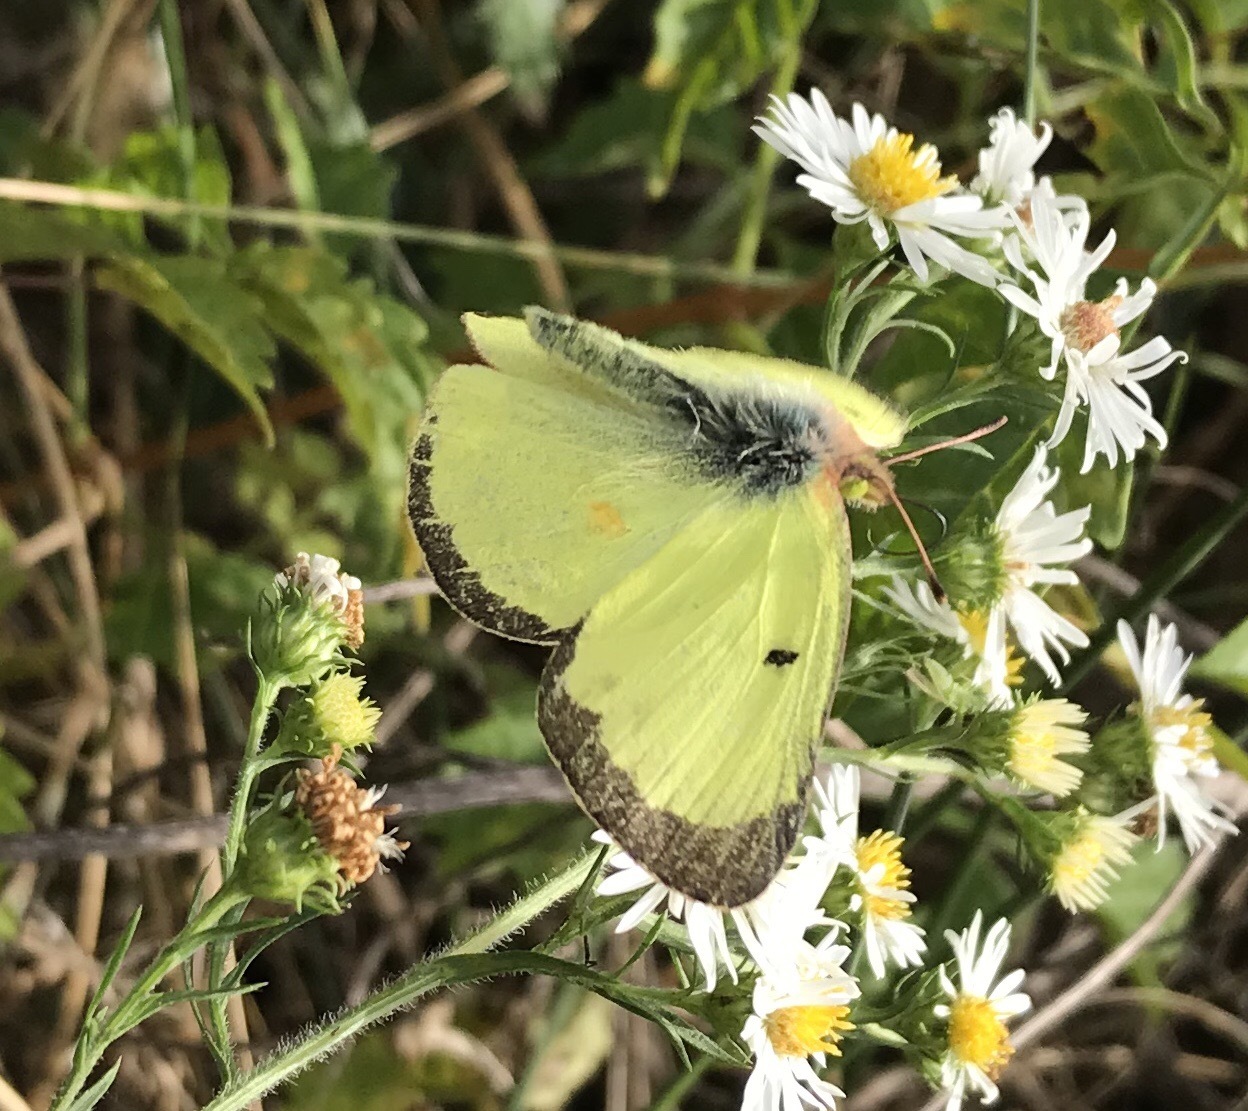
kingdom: Animalia
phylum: Arthropoda
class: Insecta
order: Lepidoptera
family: Pieridae
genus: Colias
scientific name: Colias philodice
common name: Clouded sulphur
